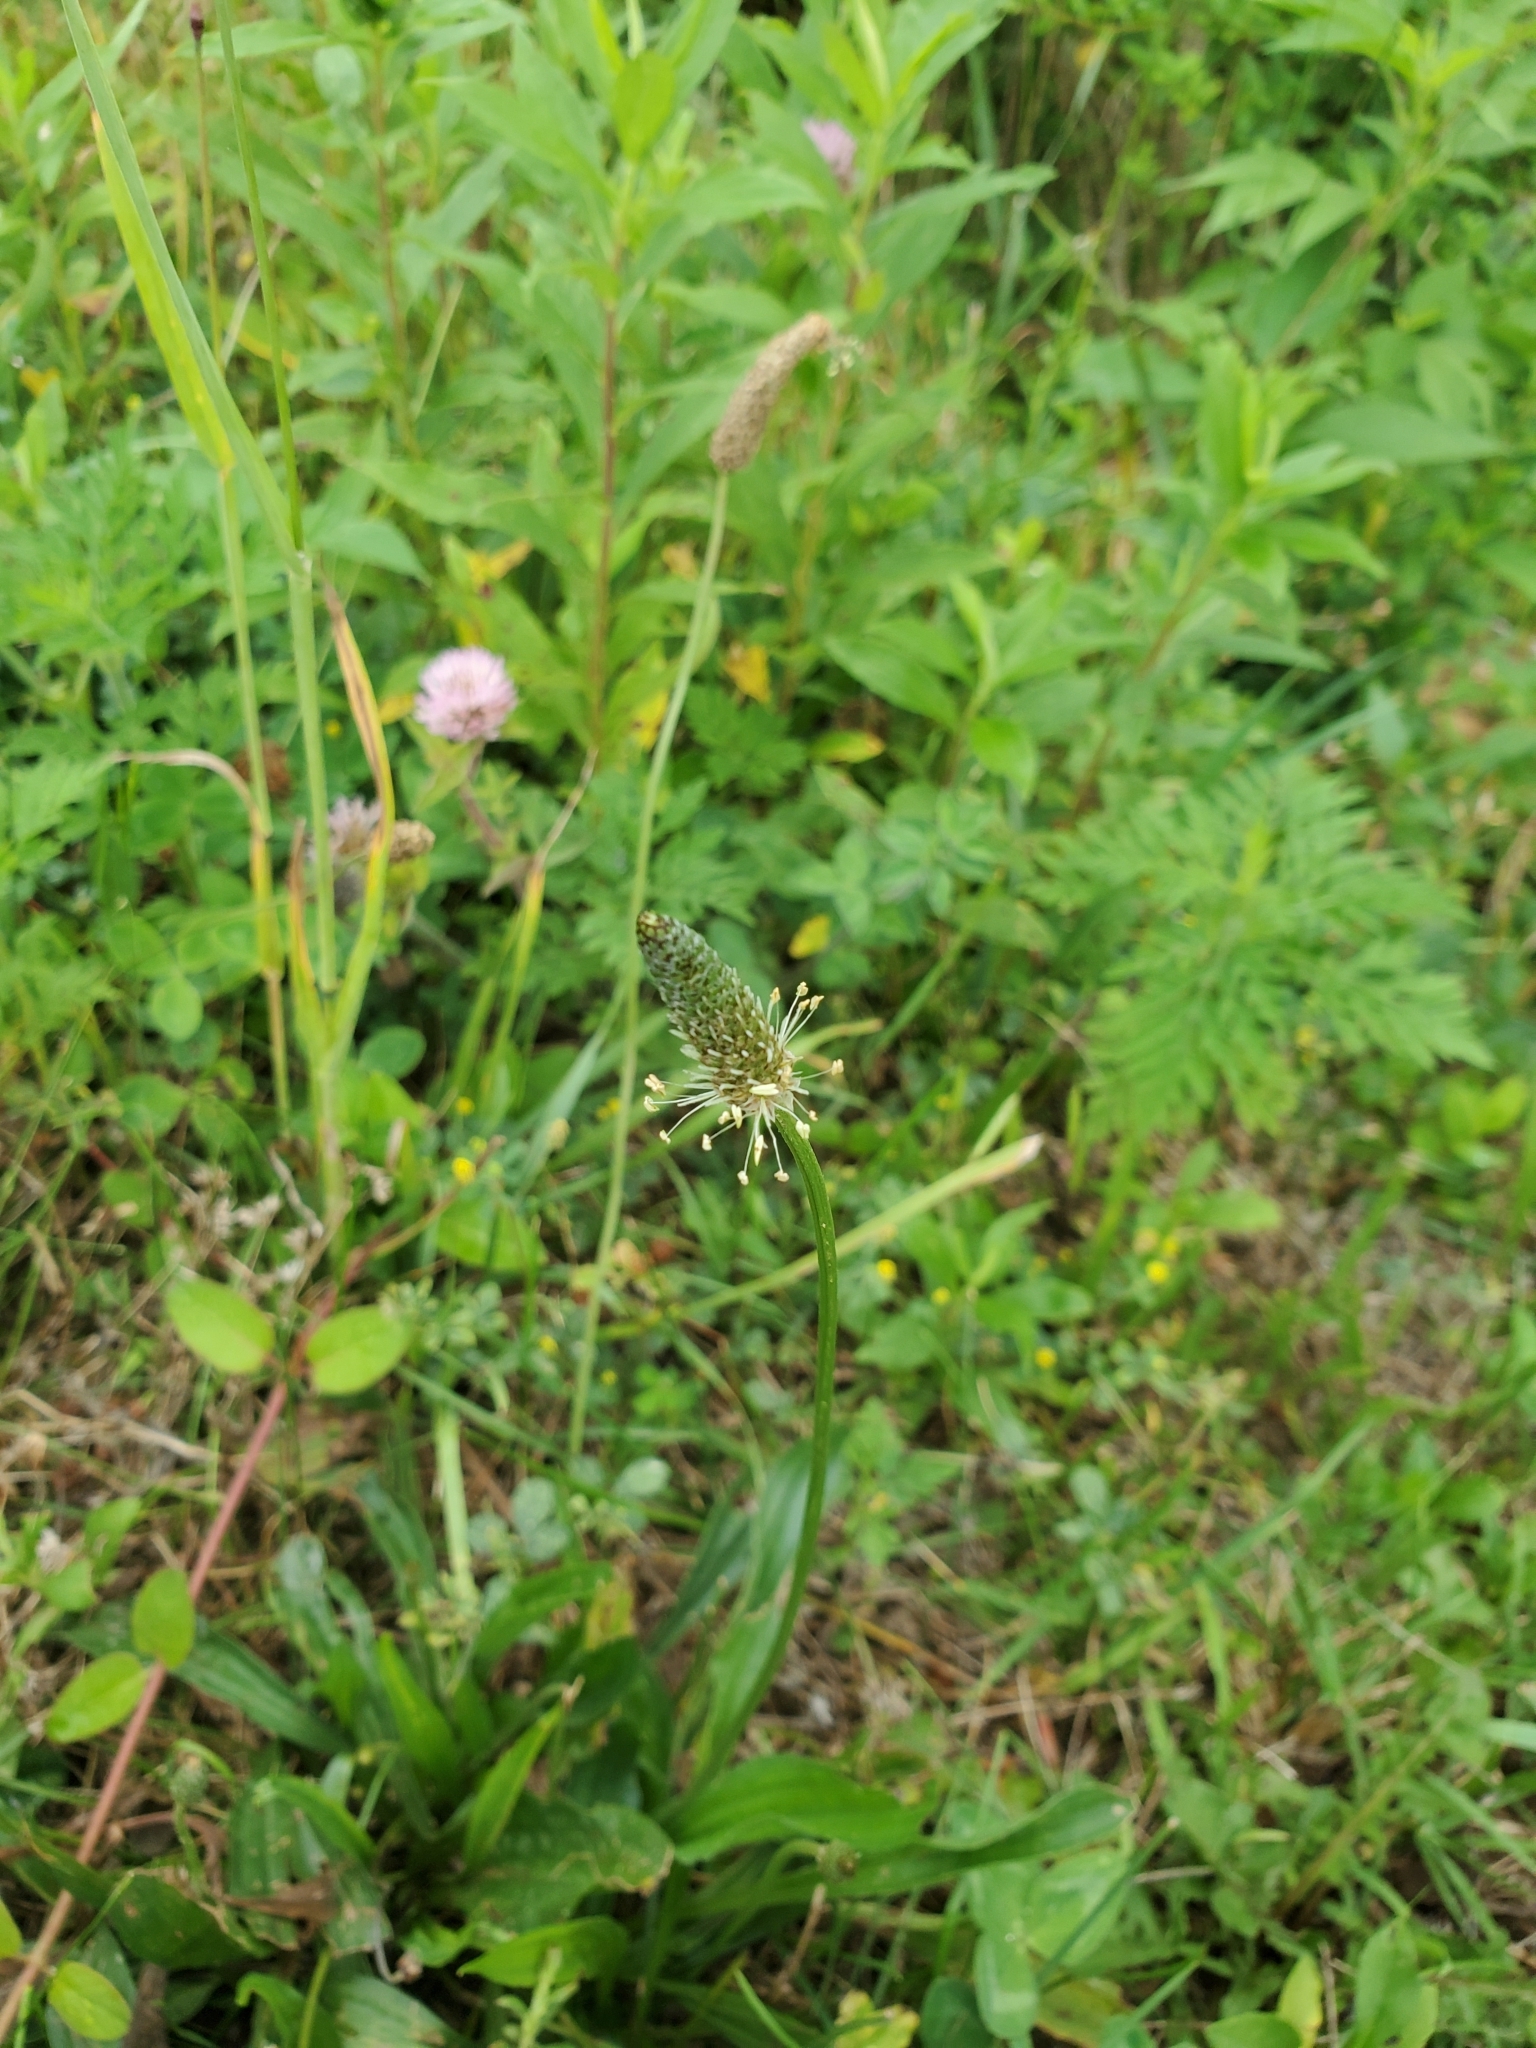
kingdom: Plantae
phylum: Tracheophyta
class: Magnoliopsida
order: Lamiales
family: Plantaginaceae
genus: Plantago
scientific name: Plantago lanceolata
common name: Ribwort plantain
